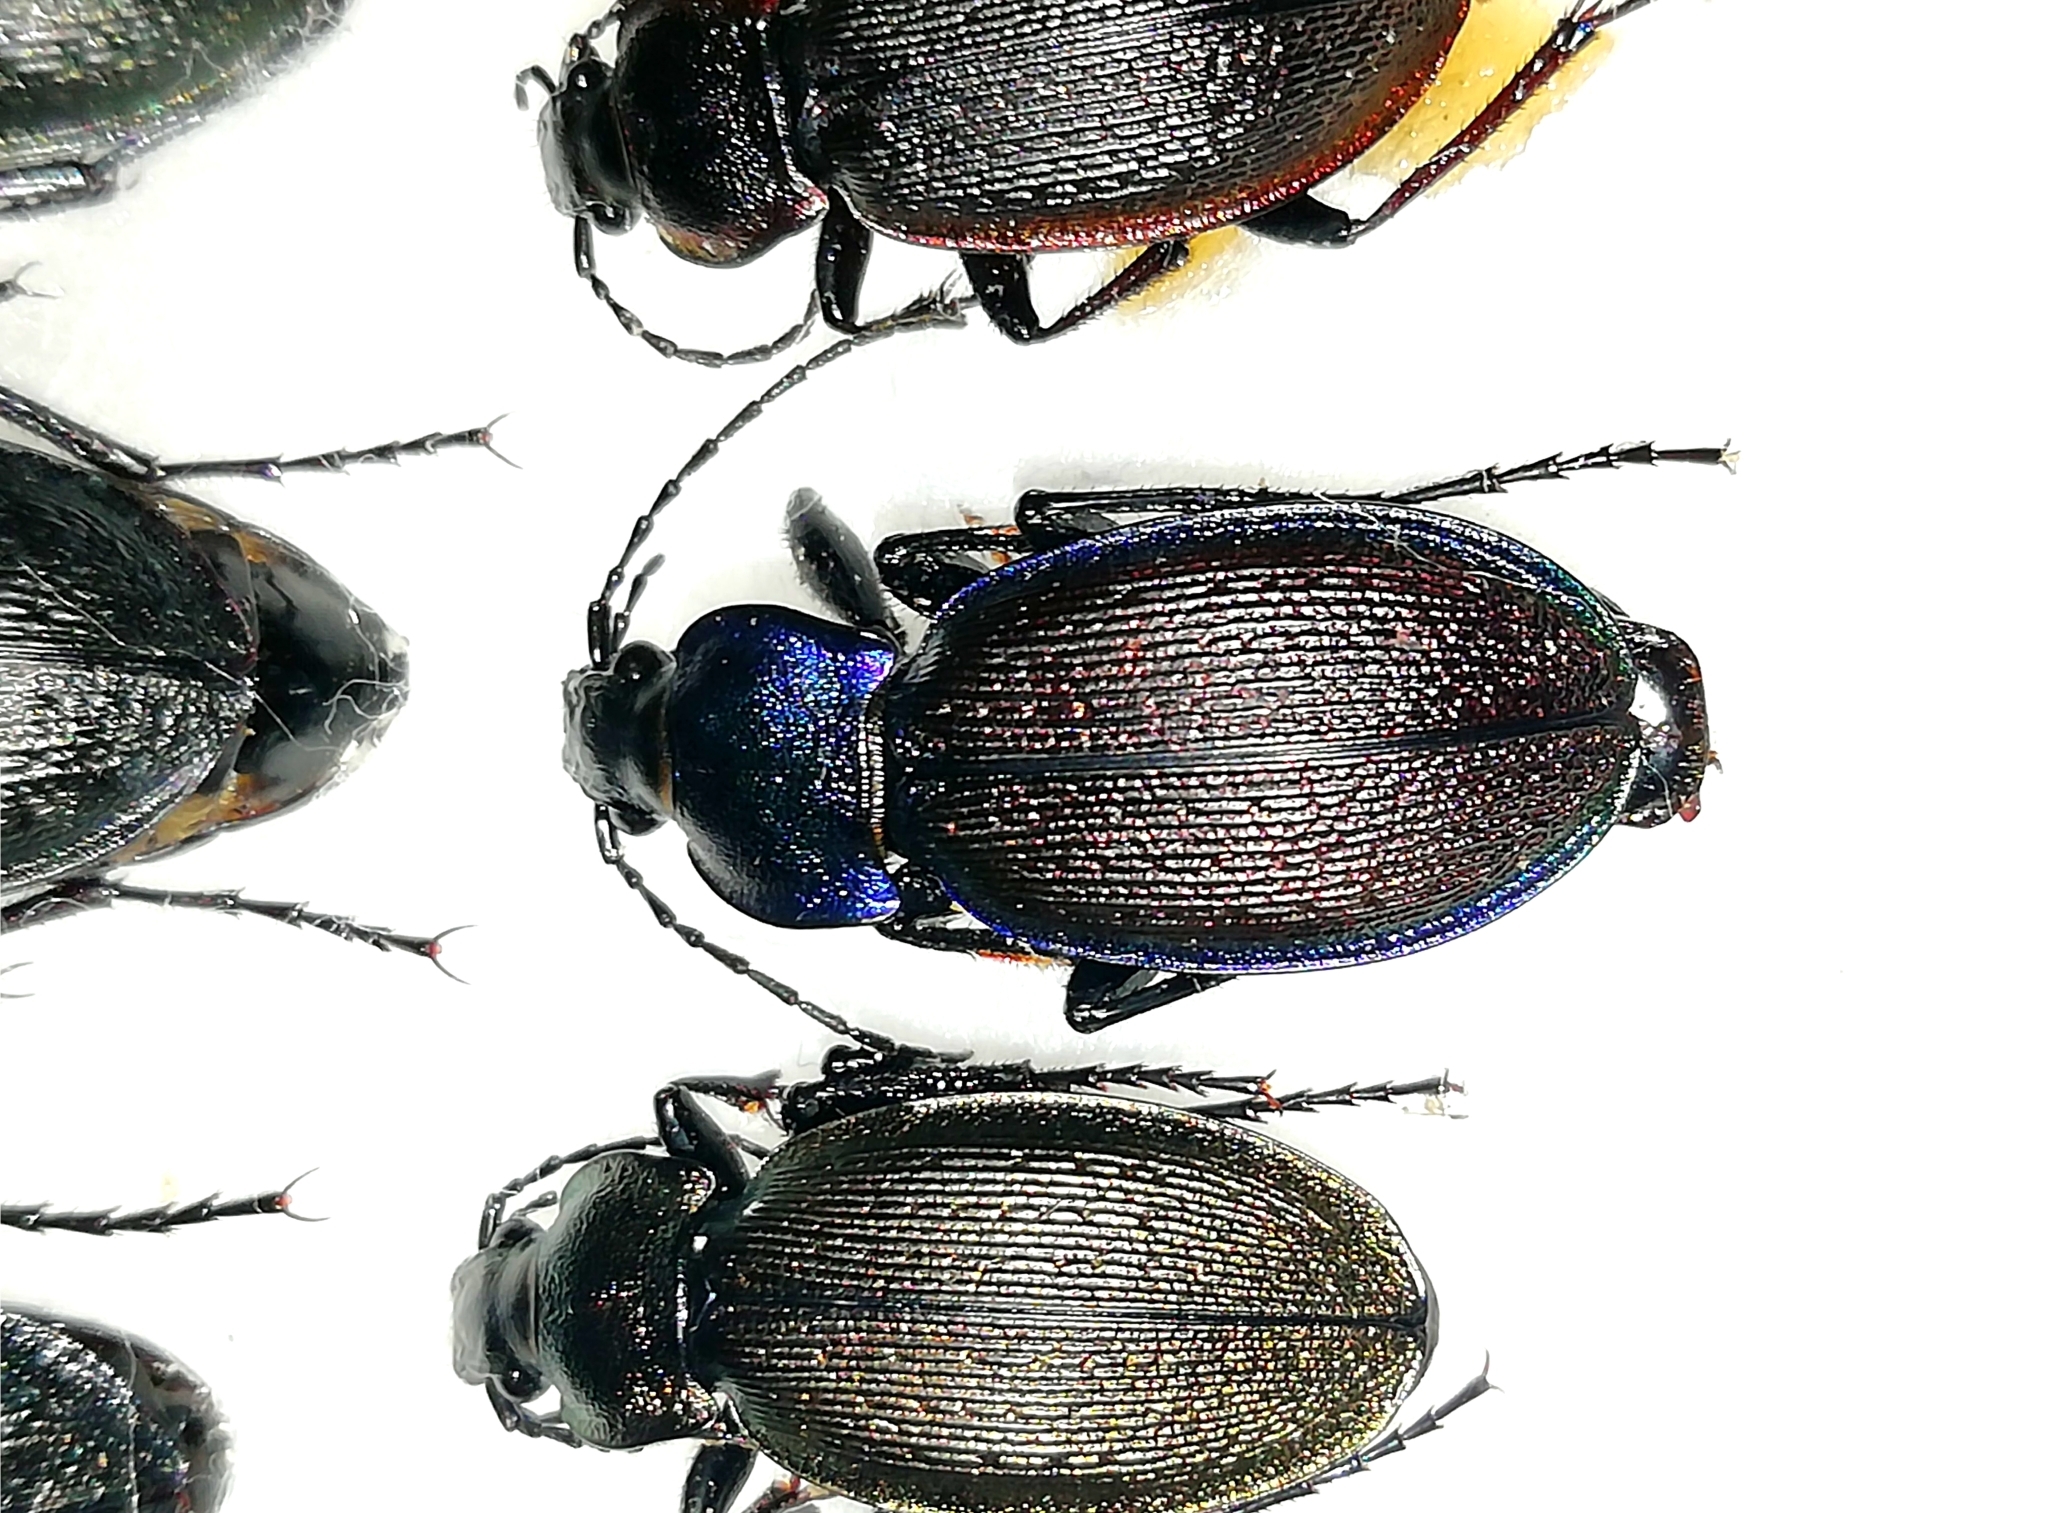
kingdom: Animalia
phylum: Arthropoda
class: Insecta
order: Coleoptera
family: Carabidae
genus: Carabus
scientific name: Carabus regalis
